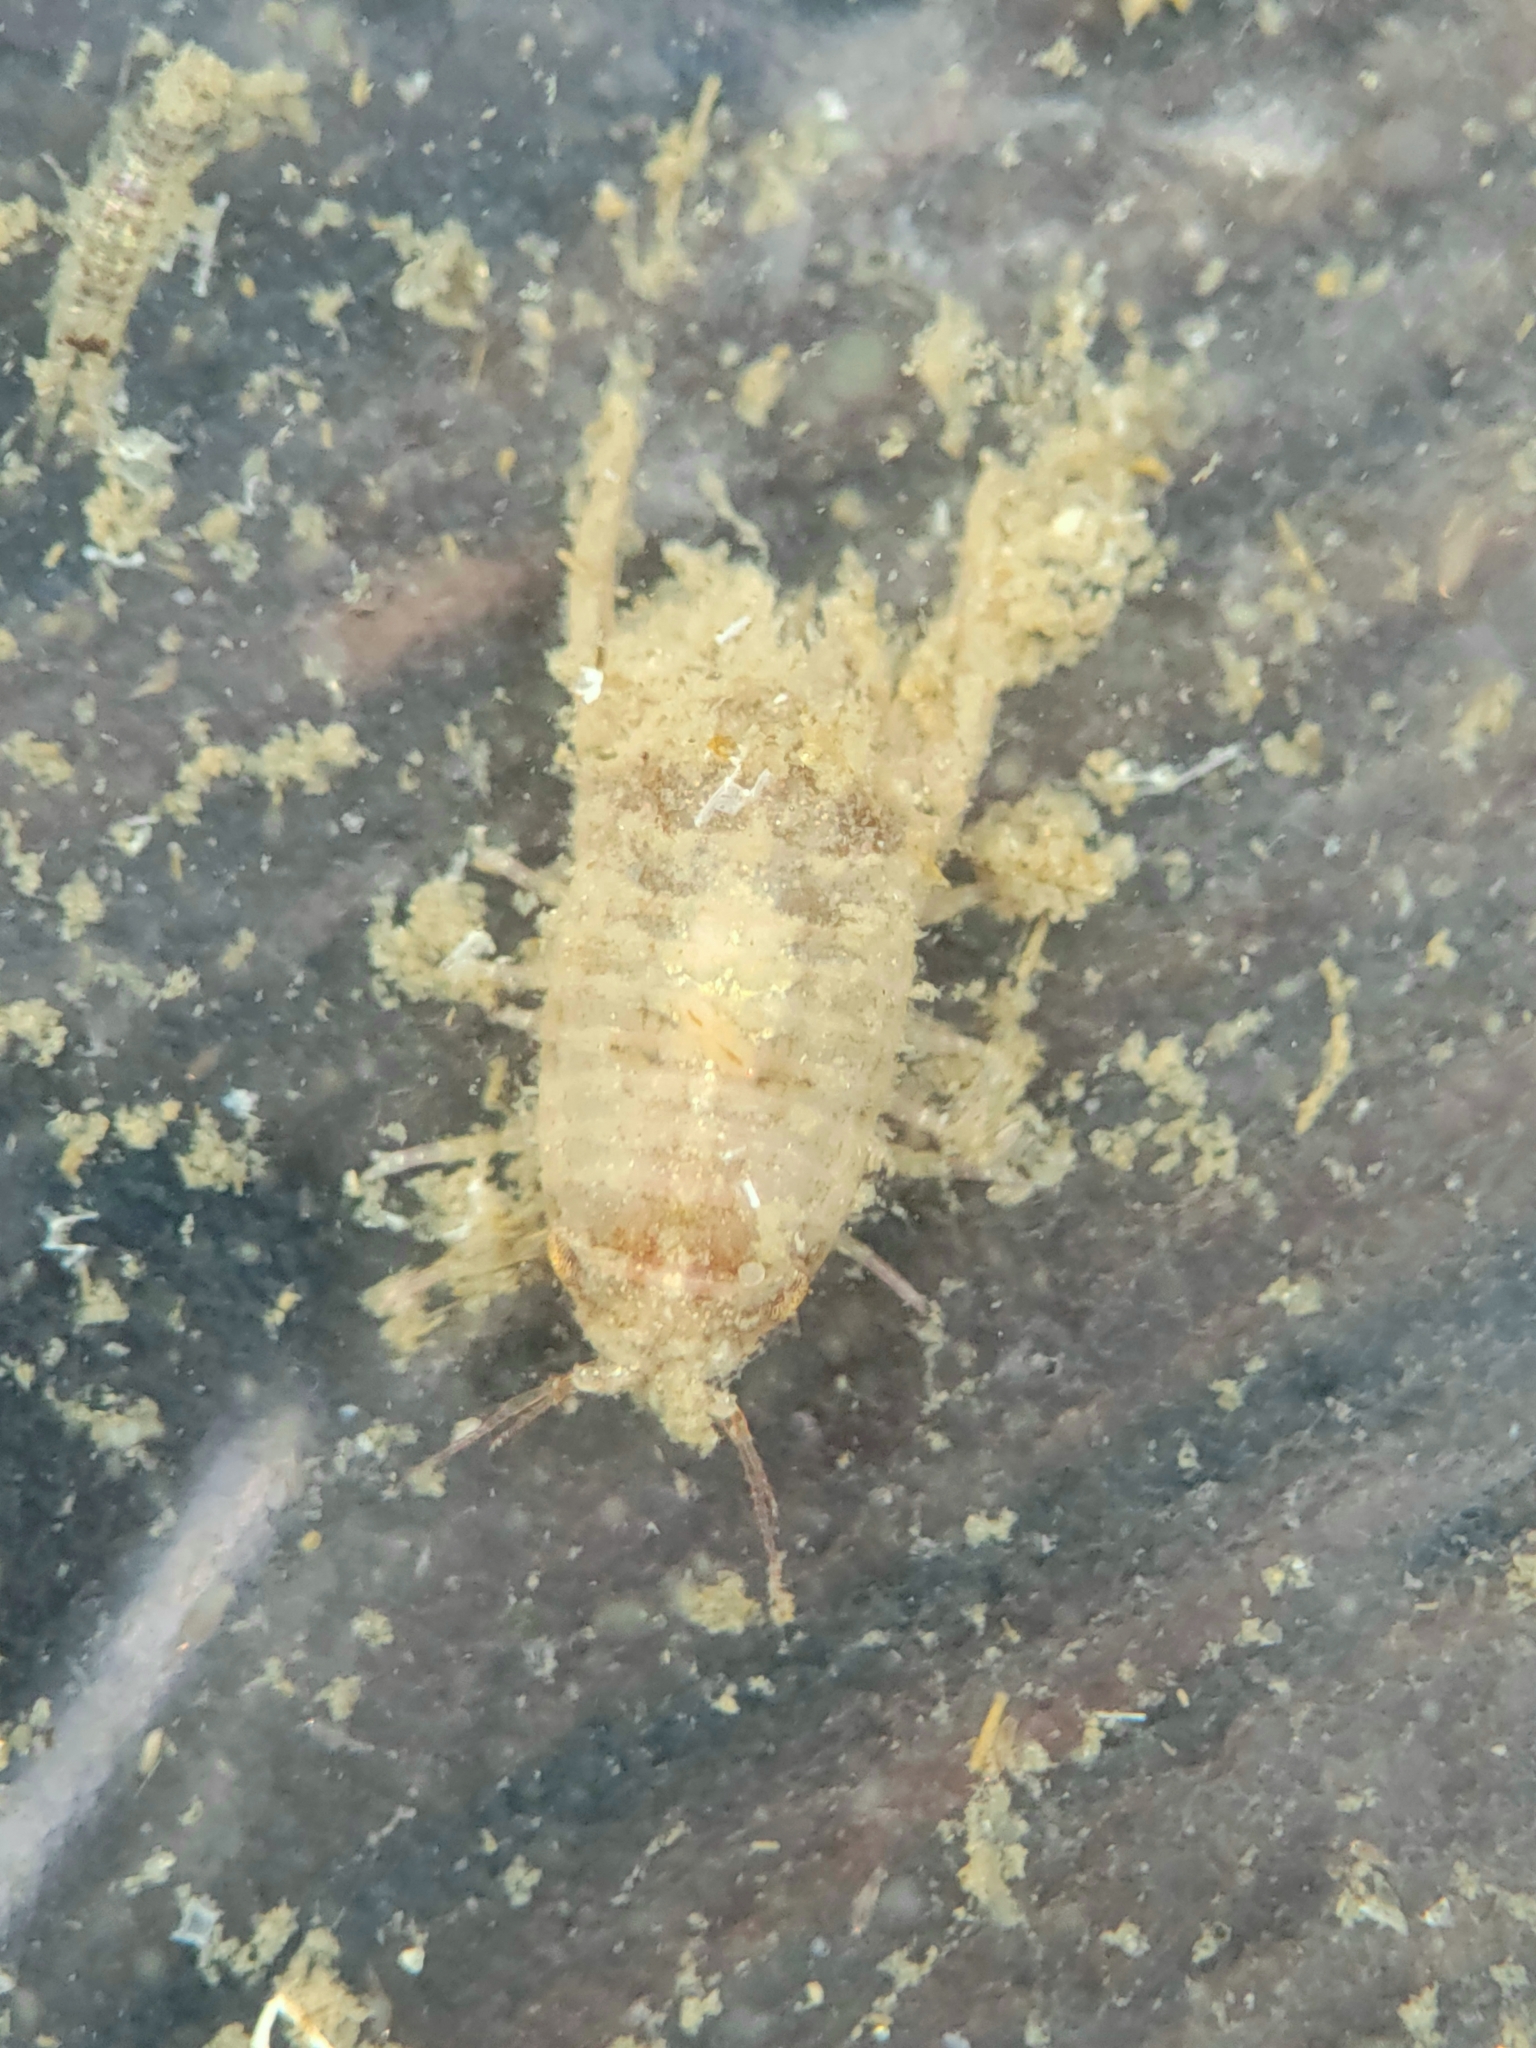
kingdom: Animalia
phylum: Arthropoda
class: Malacostraca
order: Isopoda
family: Sphaeromatidae
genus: Paracerceis
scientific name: Paracerceis sculpta
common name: Marine isopod
